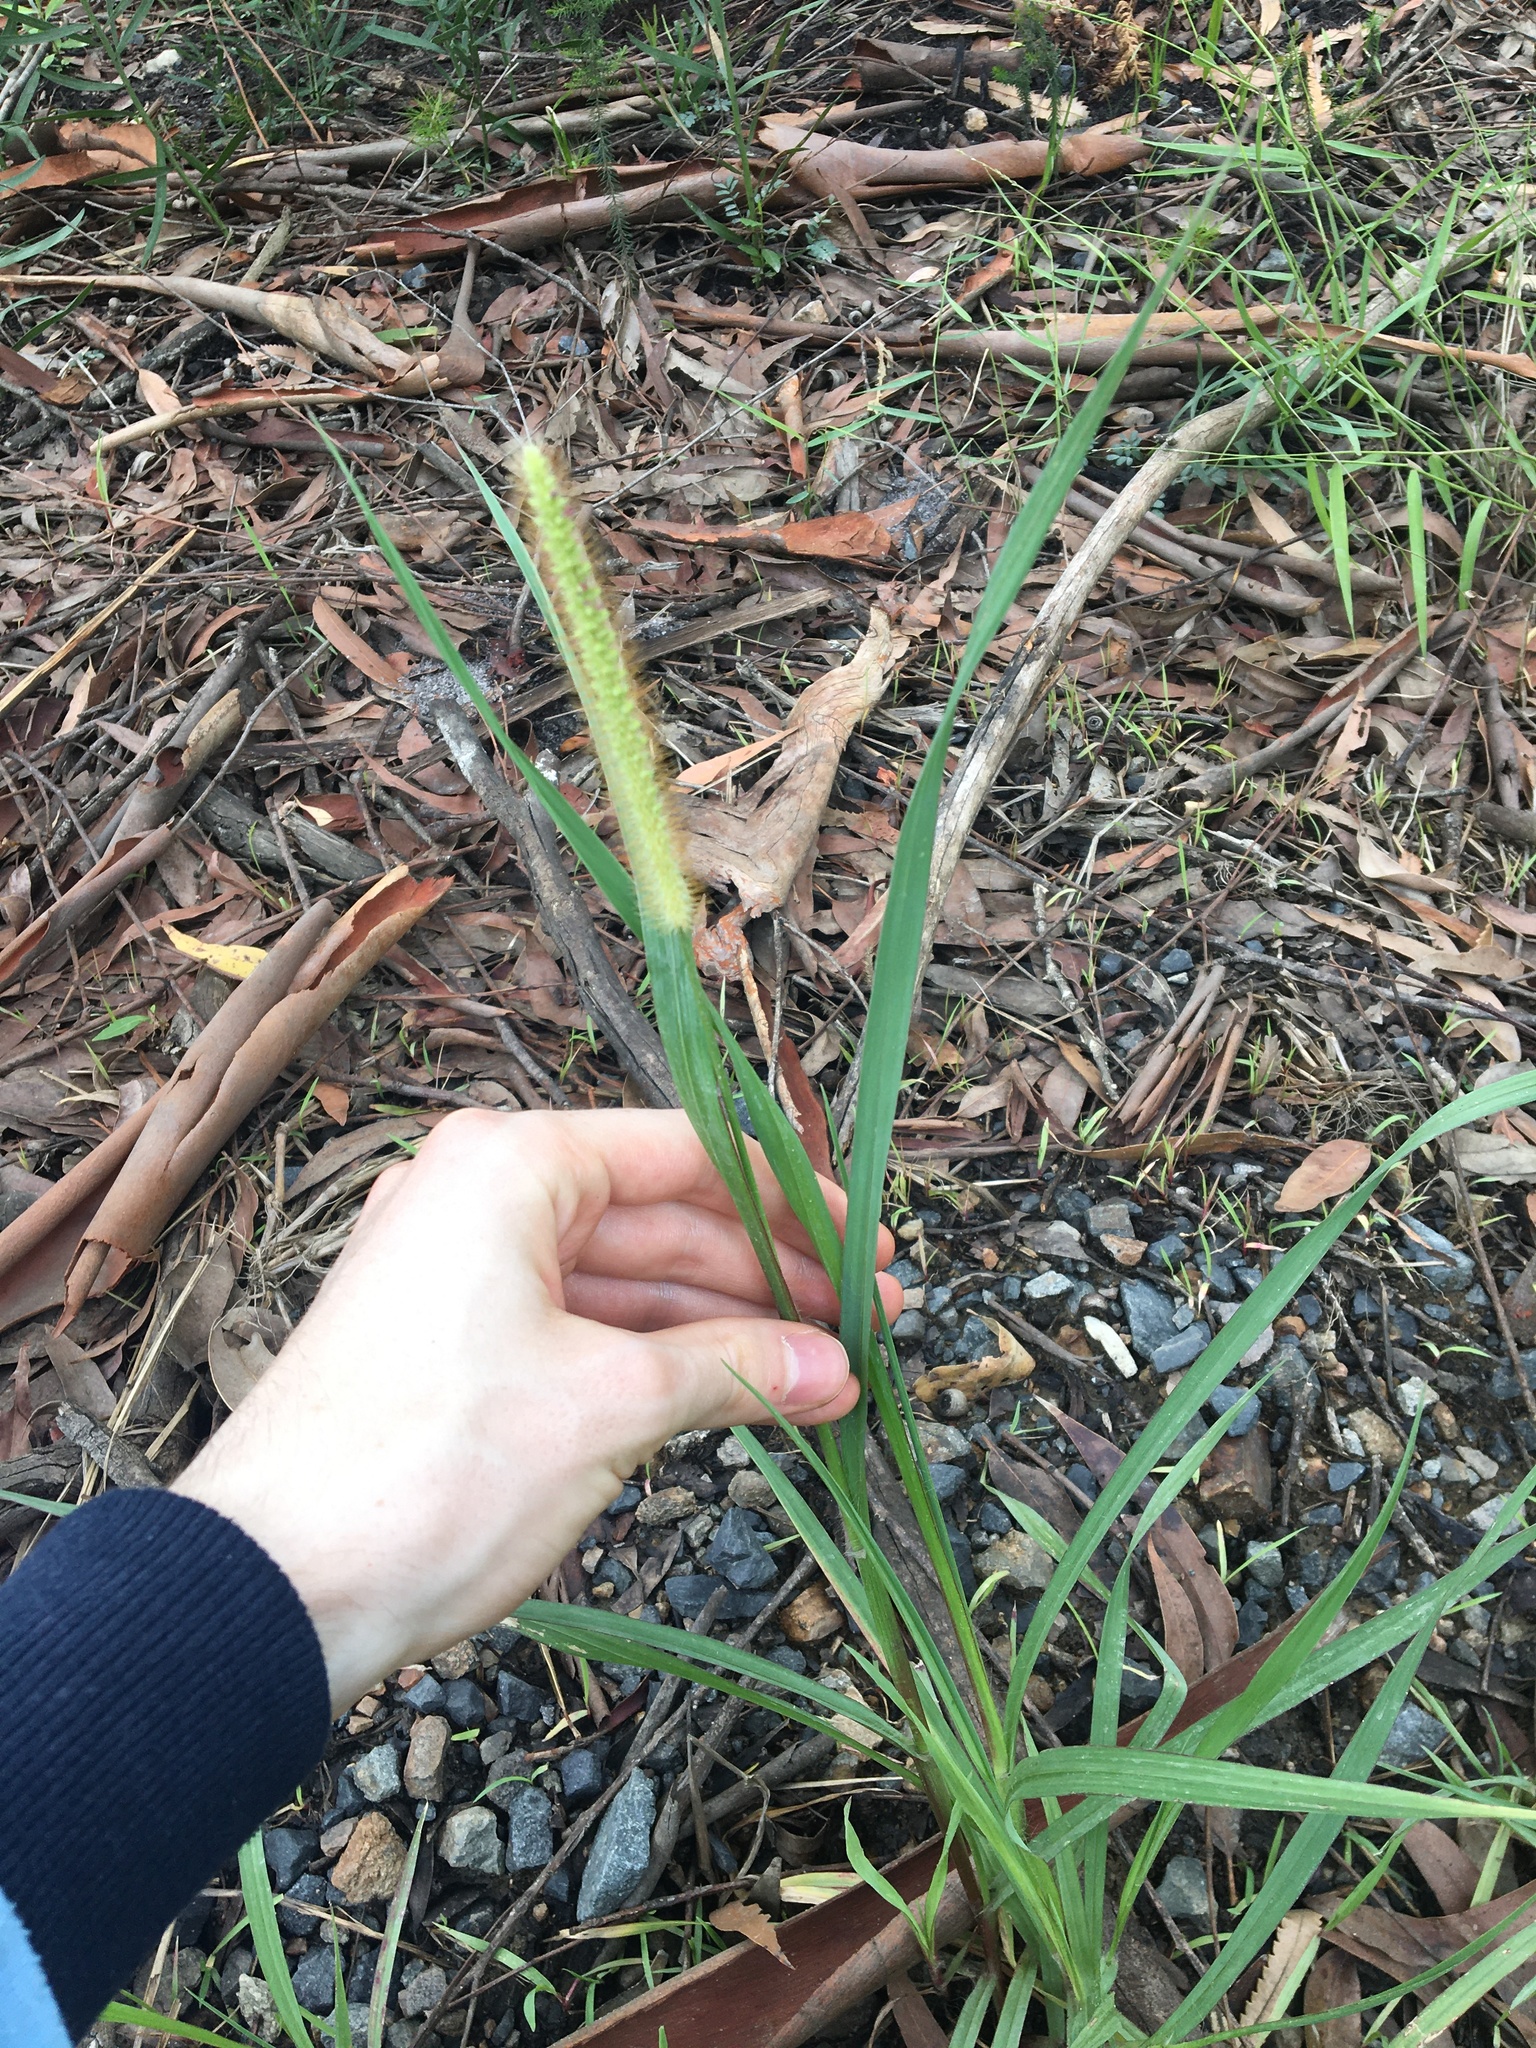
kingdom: Plantae
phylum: Tracheophyta
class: Liliopsida
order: Poales
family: Poaceae
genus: Setaria
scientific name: Setaria parviflora
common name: Knotroot bristle-grass
